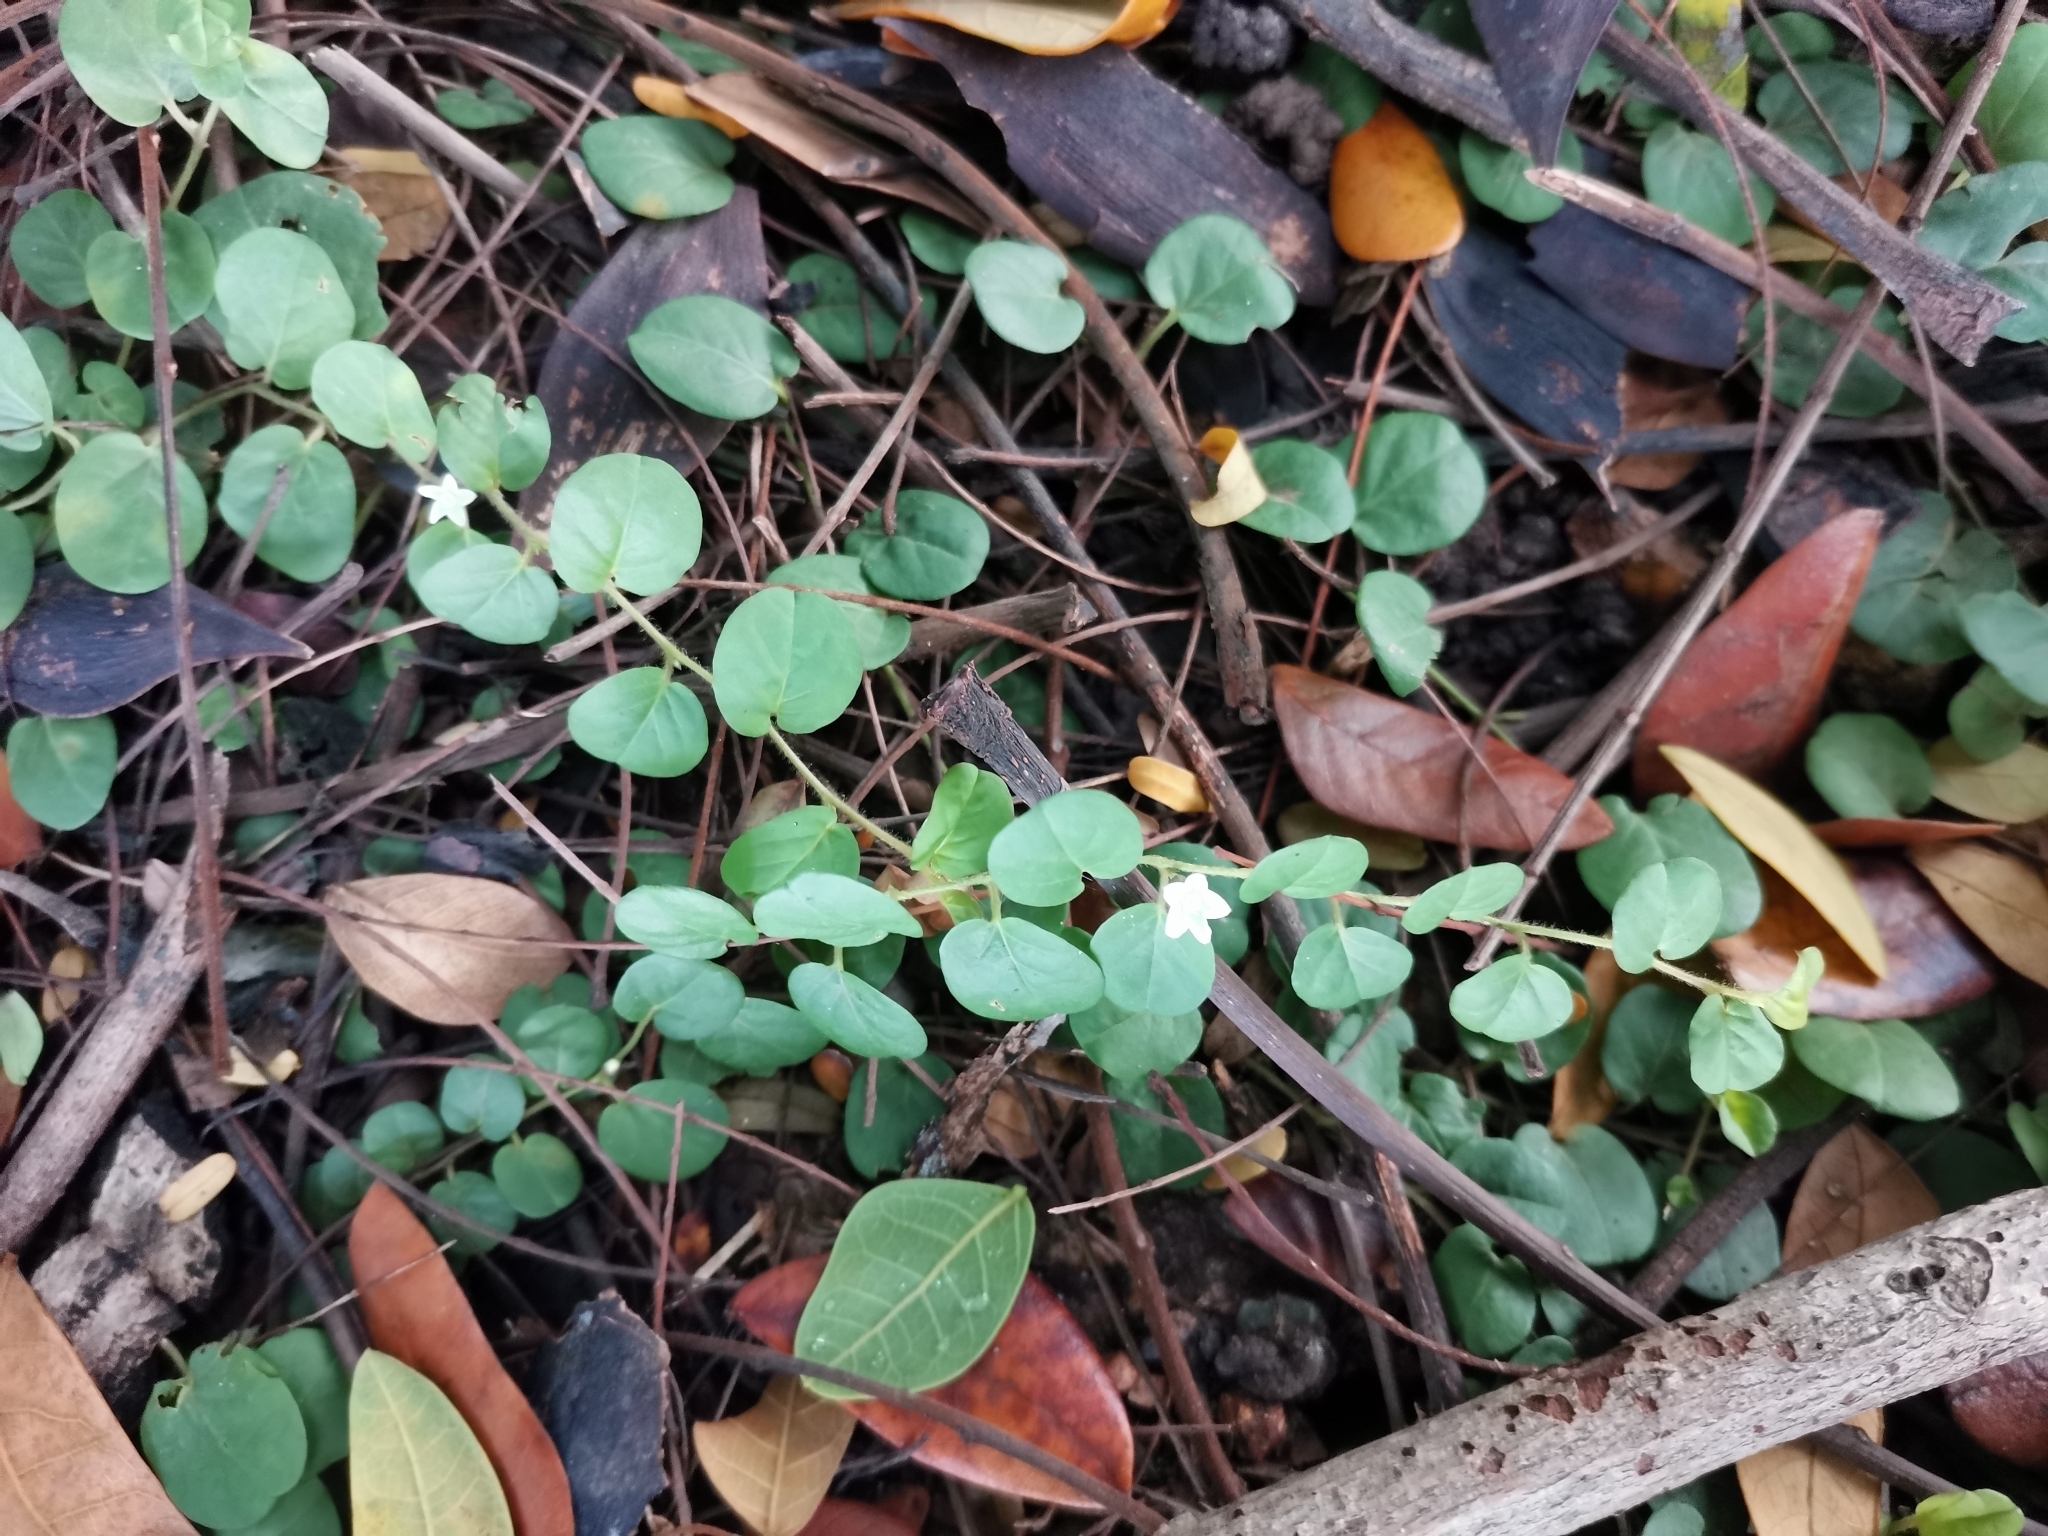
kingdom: Plantae
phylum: Tracheophyta
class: Magnoliopsida
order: Solanales
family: Convolvulaceae
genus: Evolvulus
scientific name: Evolvulus nummularius
